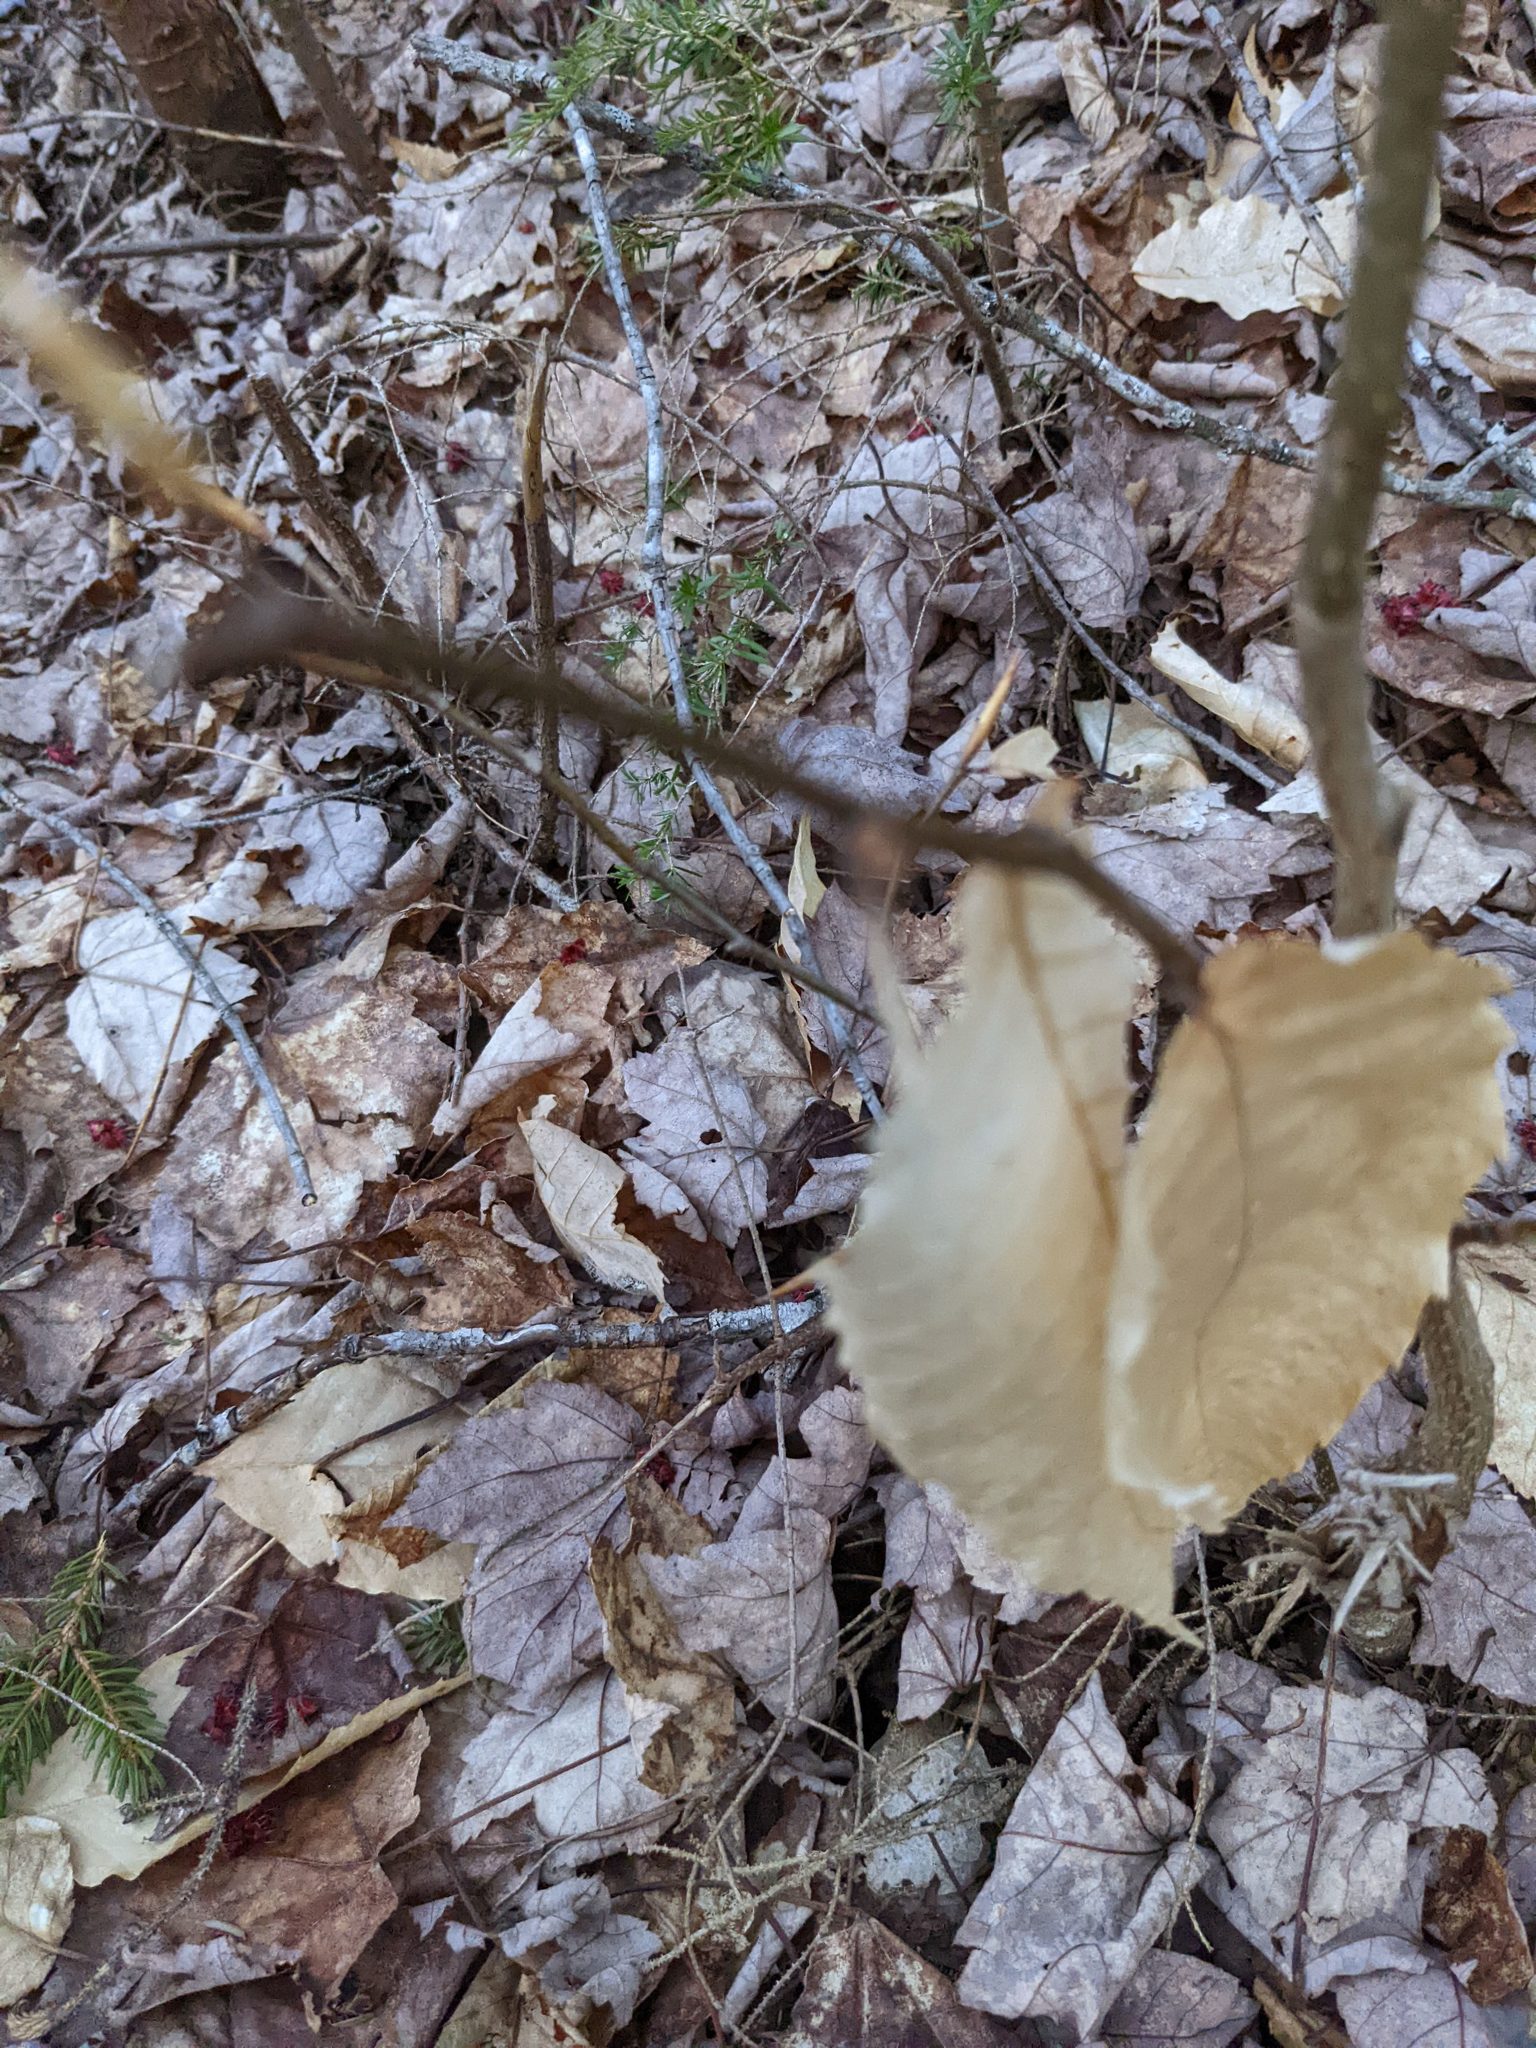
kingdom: Plantae
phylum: Tracheophyta
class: Magnoliopsida
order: Fagales
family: Fagaceae
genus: Fagus
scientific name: Fagus grandifolia
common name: American beech
